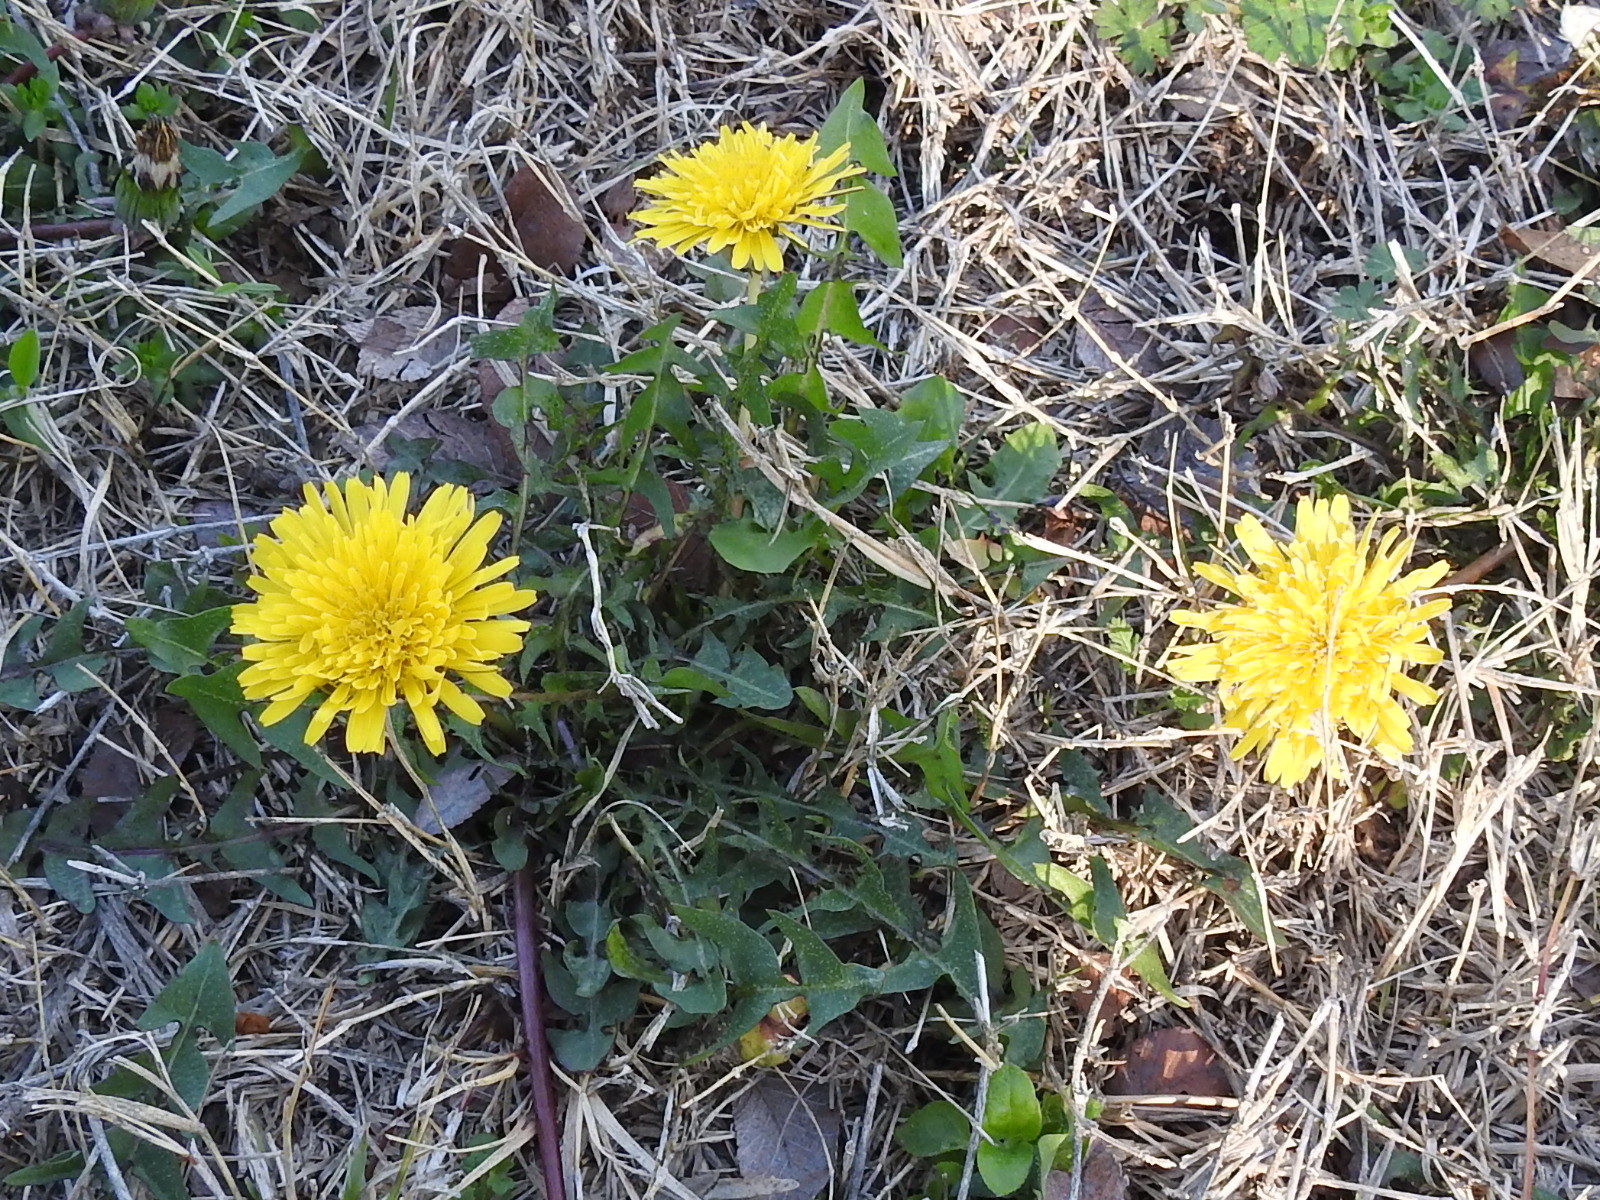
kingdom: Plantae
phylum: Tracheophyta
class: Magnoliopsida
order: Asterales
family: Asteraceae
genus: Taraxacum
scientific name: Taraxacum officinale
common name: Common dandelion
